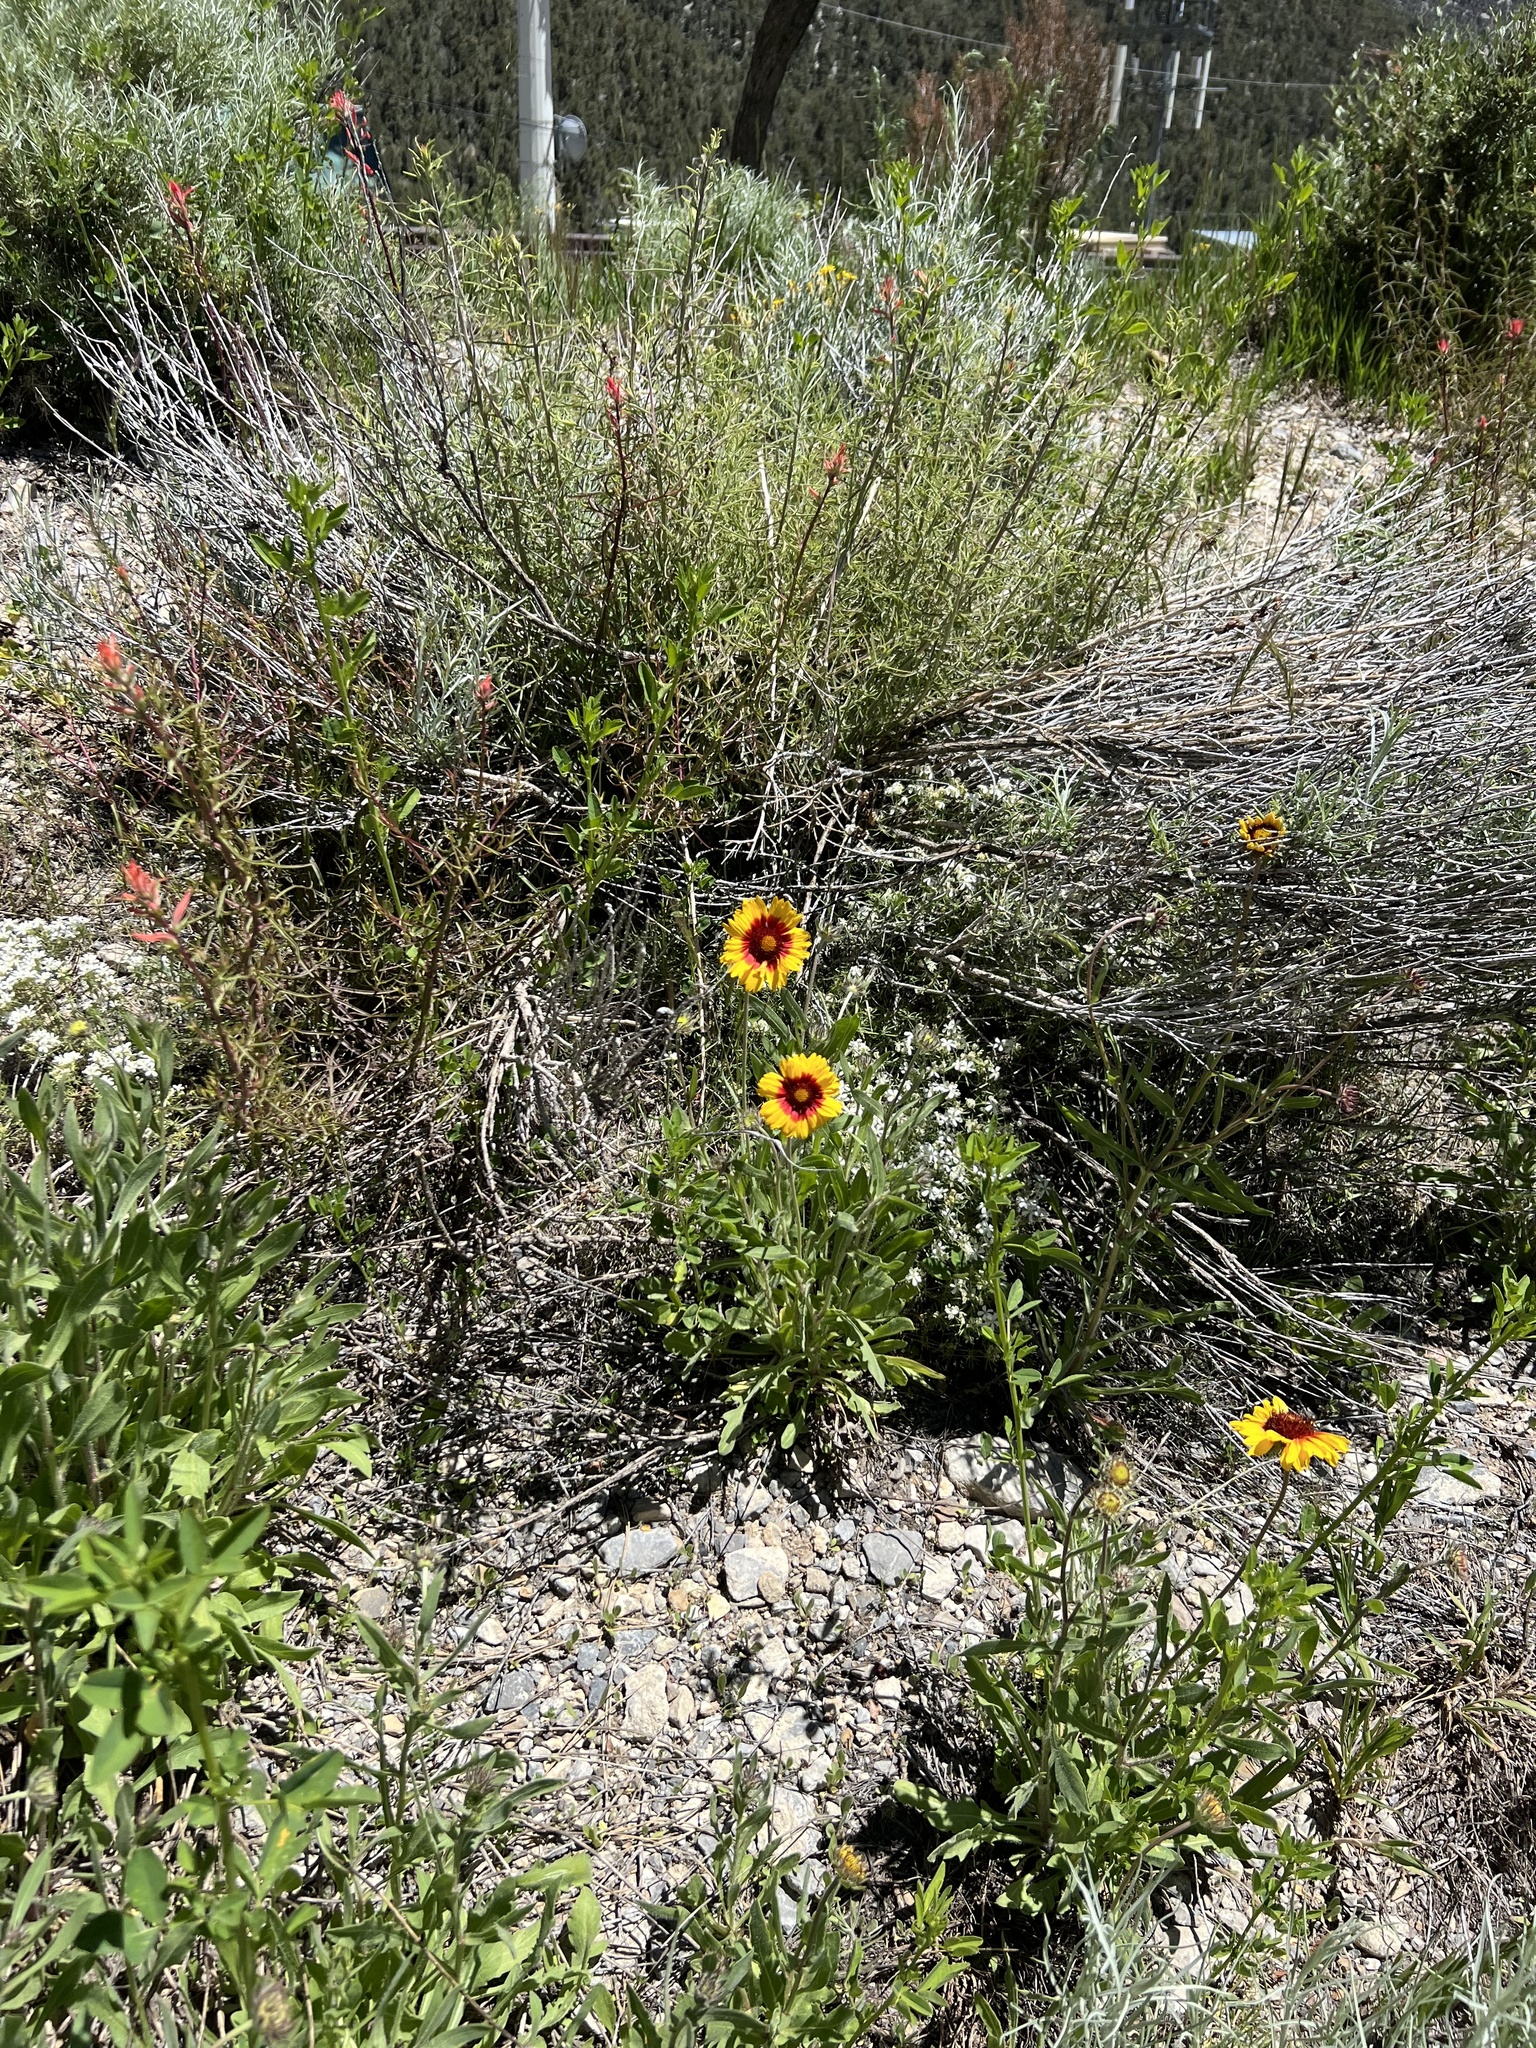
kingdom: Plantae
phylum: Tracheophyta
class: Magnoliopsida
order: Asterales
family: Asteraceae
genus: Gaillardia
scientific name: Gaillardia pulchella
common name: Firewheel
